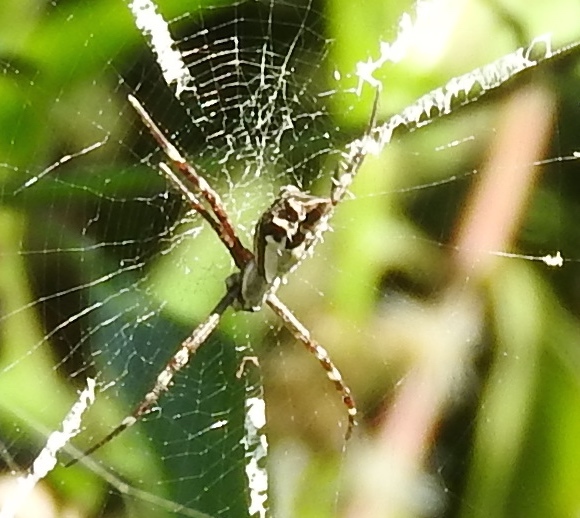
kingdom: Animalia
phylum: Arthropoda
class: Arachnida
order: Araneae
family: Araneidae
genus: Argiope
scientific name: Argiope argentata
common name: Orb weavers
